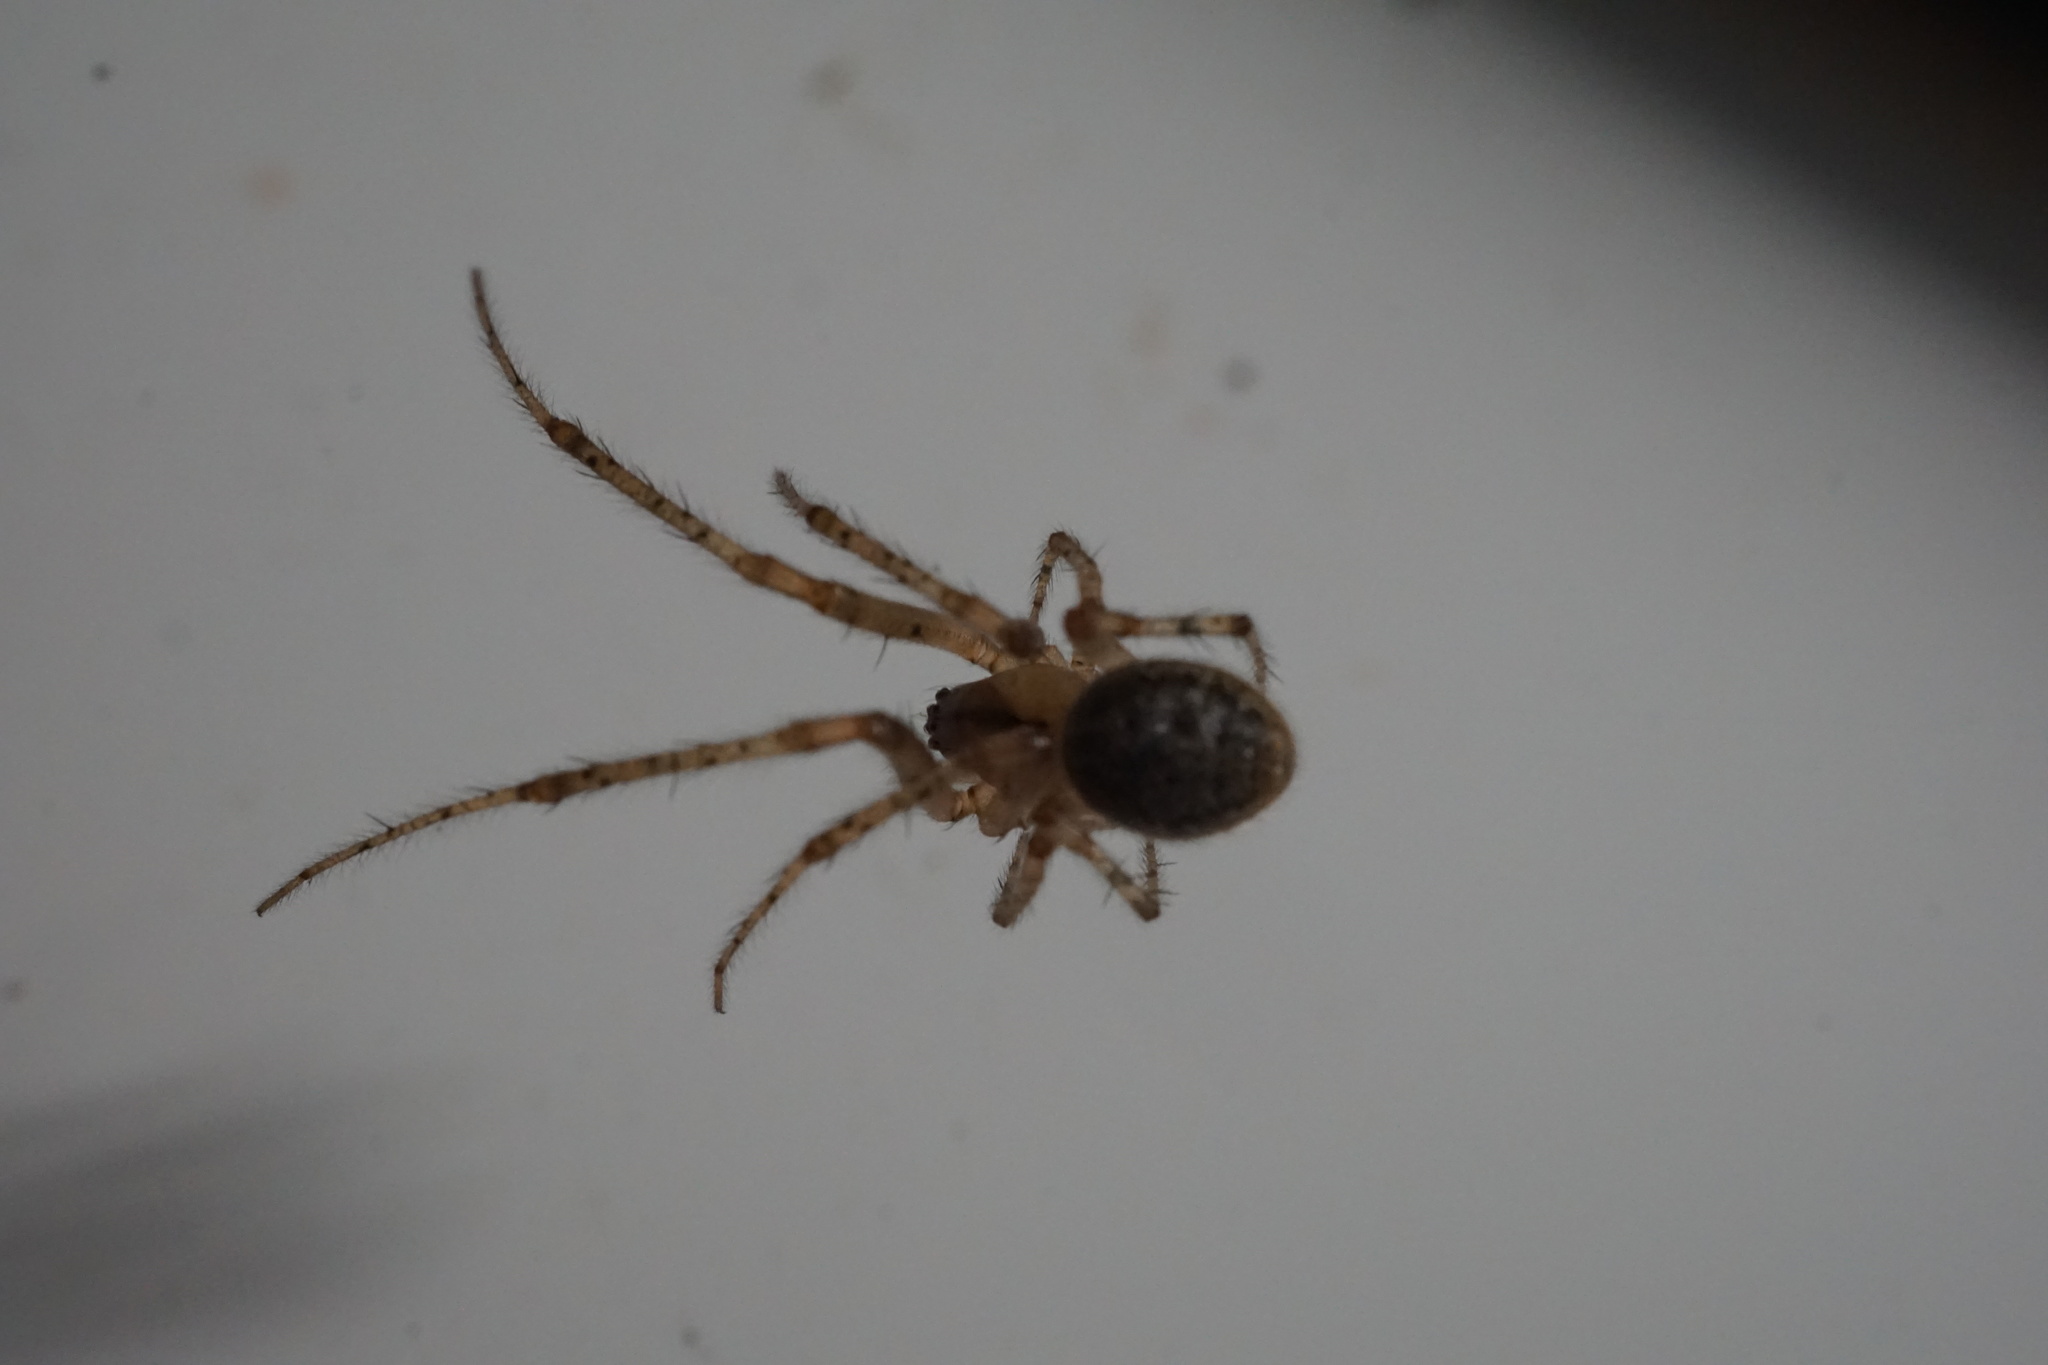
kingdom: Animalia
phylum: Arthropoda
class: Arachnida
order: Araneae
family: Araneidae
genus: Zygiella
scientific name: Zygiella x-notata
